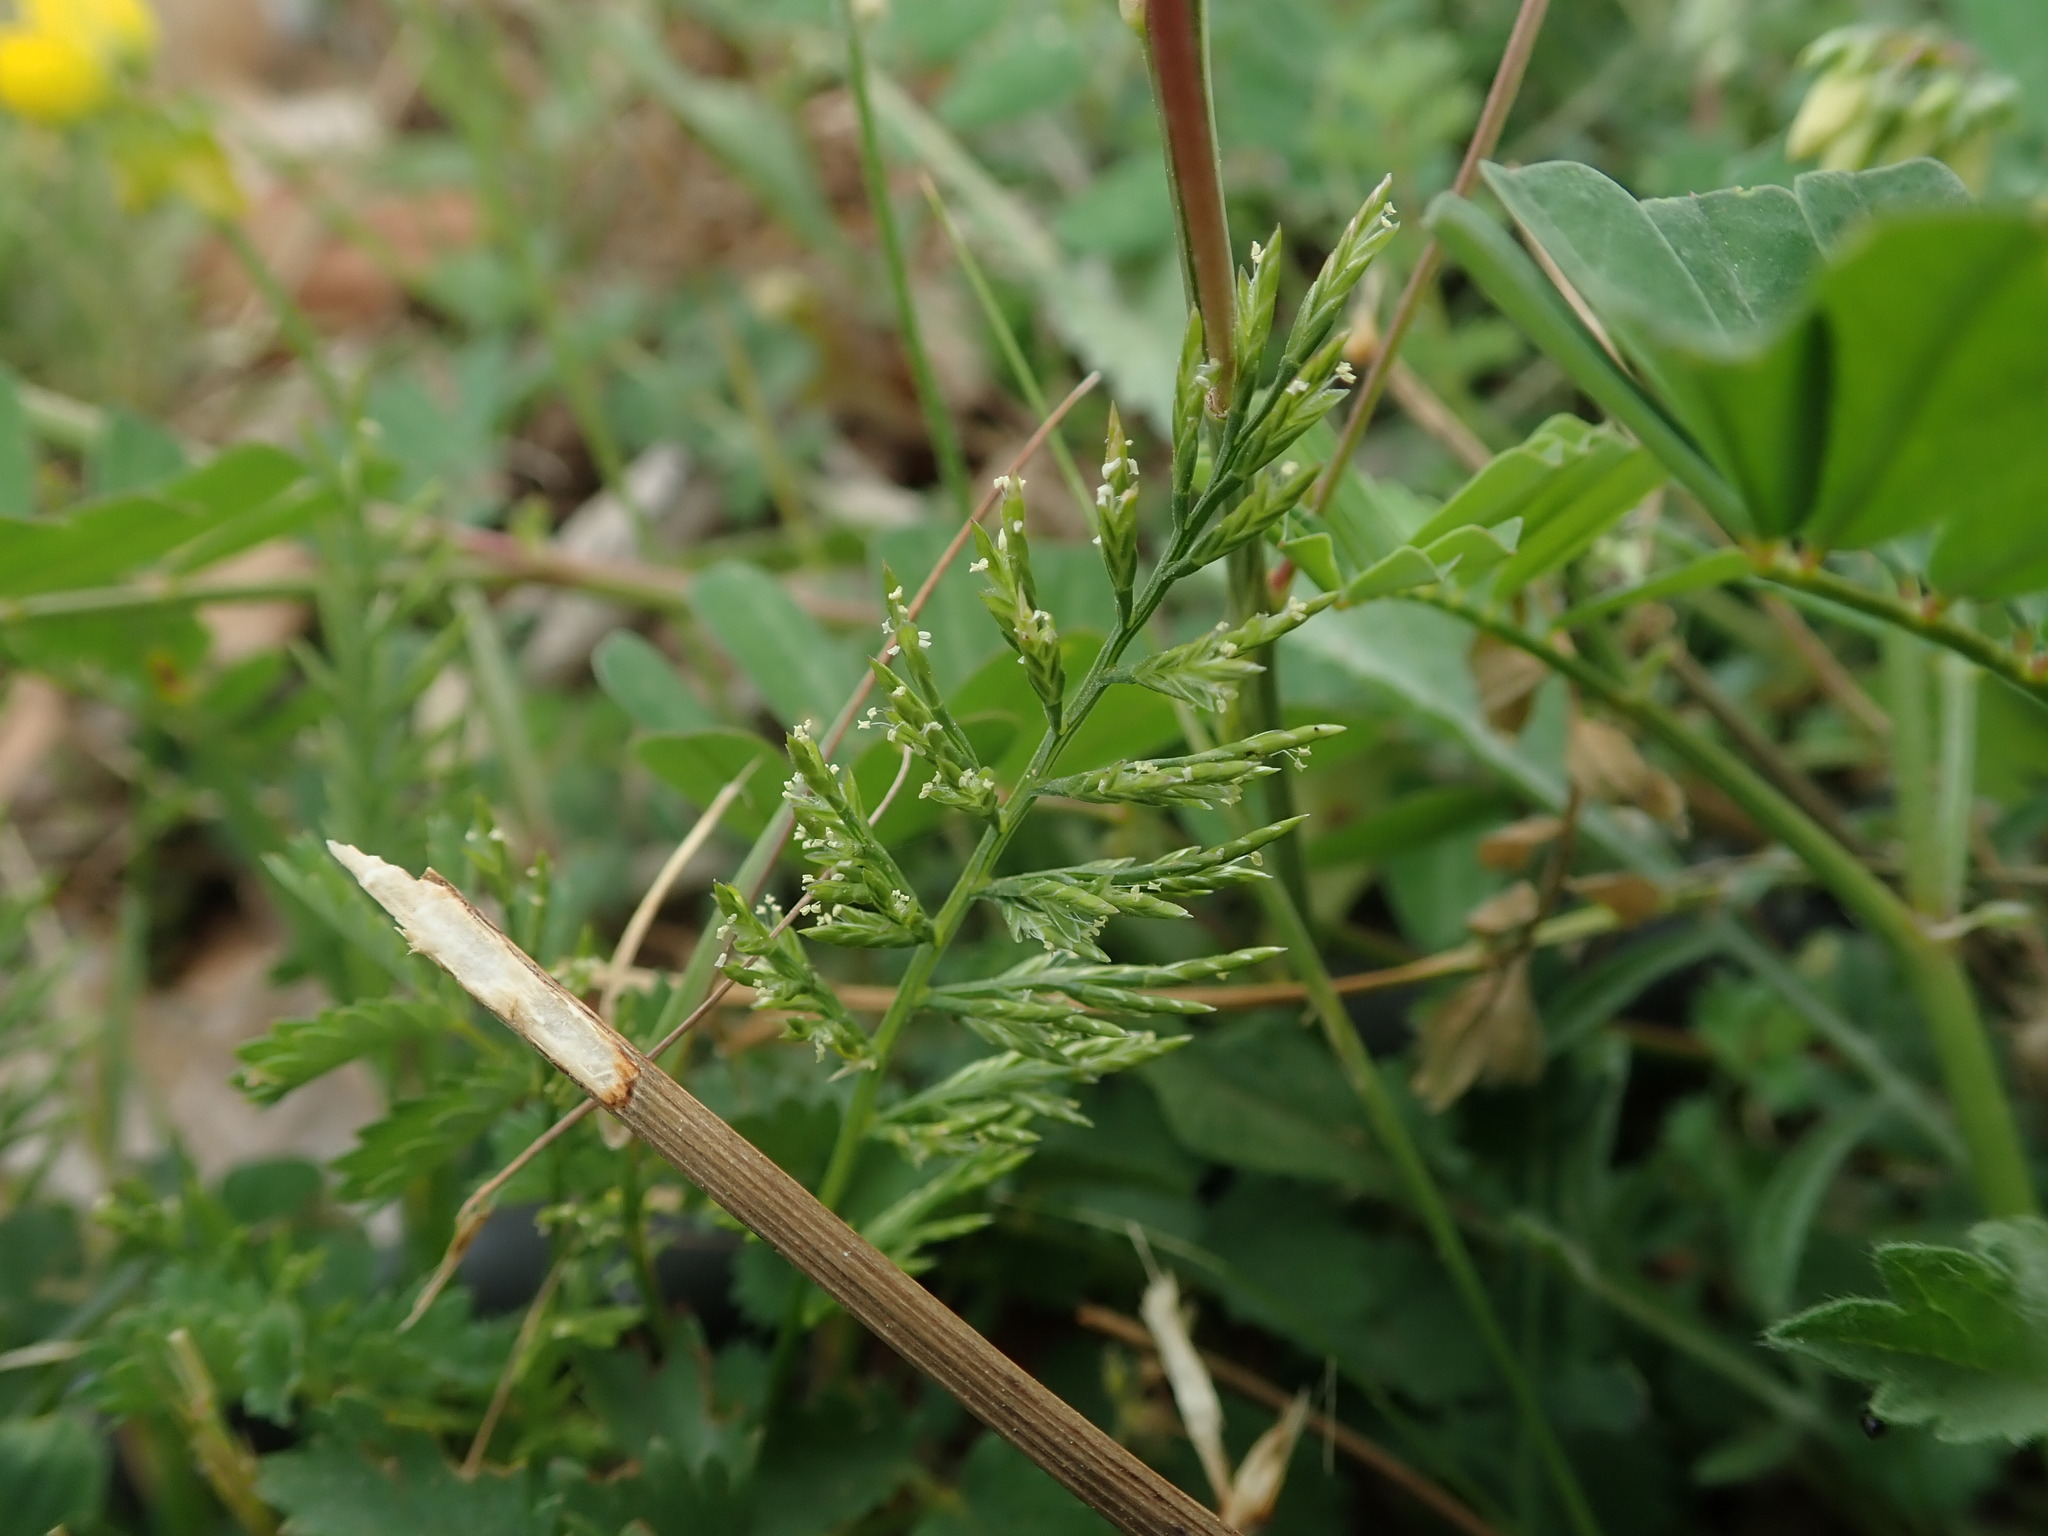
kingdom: Plantae
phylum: Tracheophyta
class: Liliopsida
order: Poales
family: Poaceae
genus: Catapodium
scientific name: Catapodium rigidum
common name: Fern-grass
